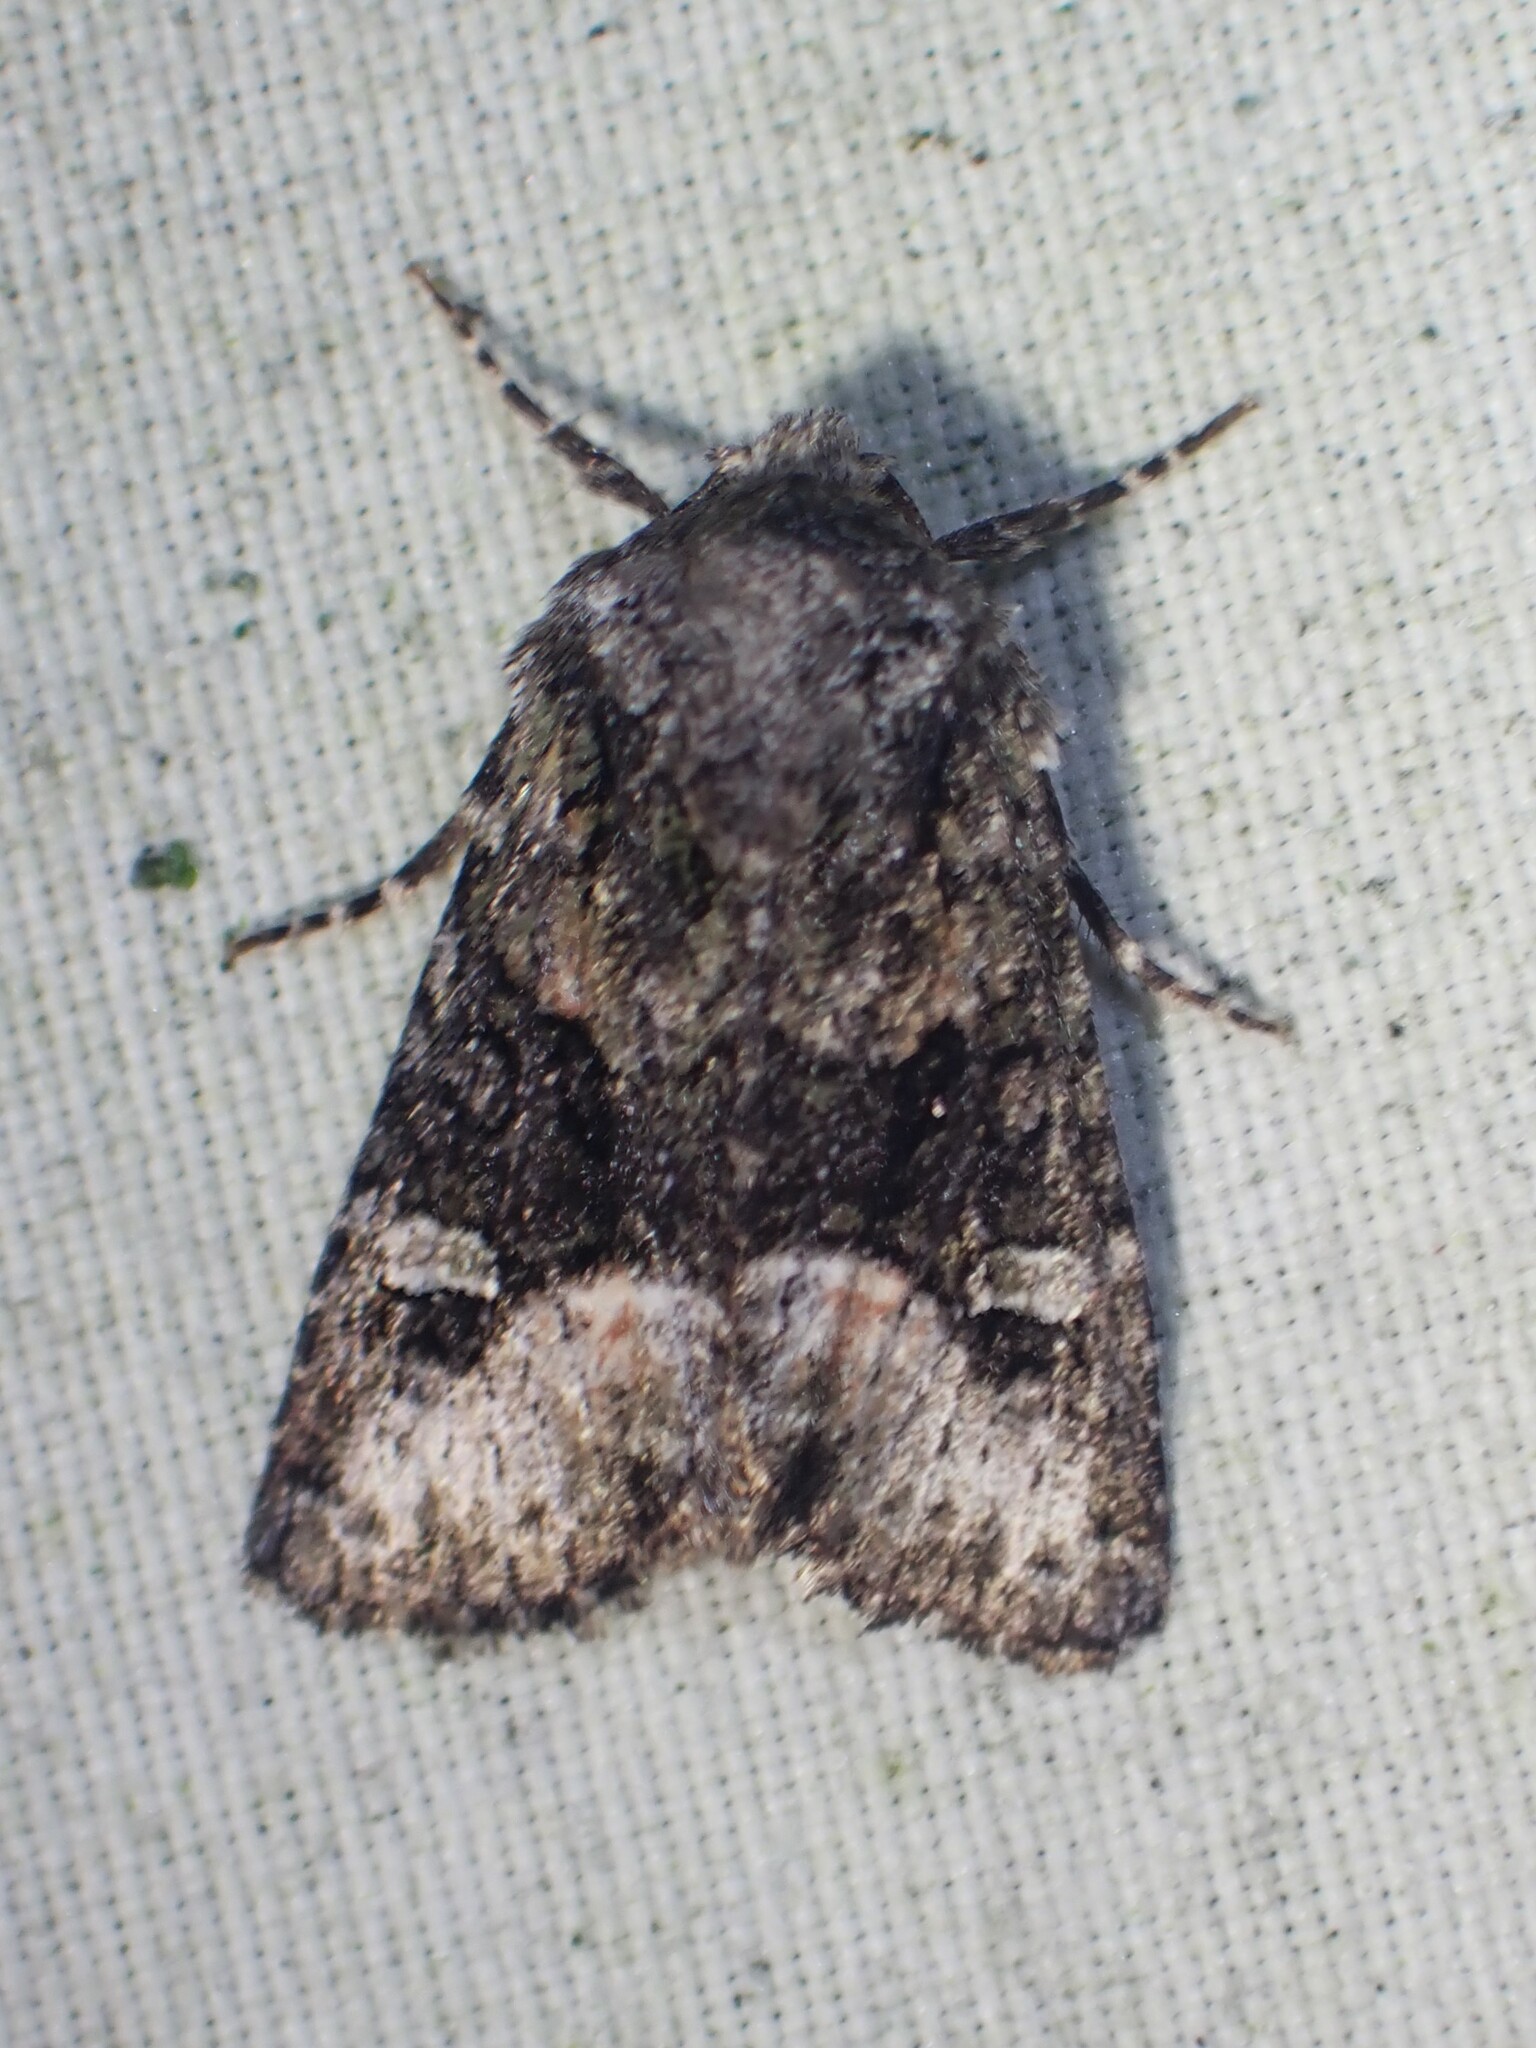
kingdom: Animalia
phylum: Arthropoda
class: Insecta
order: Lepidoptera
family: Noctuidae
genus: Lacinipolia
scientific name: Lacinipolia olivacea
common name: Olive arches moth
